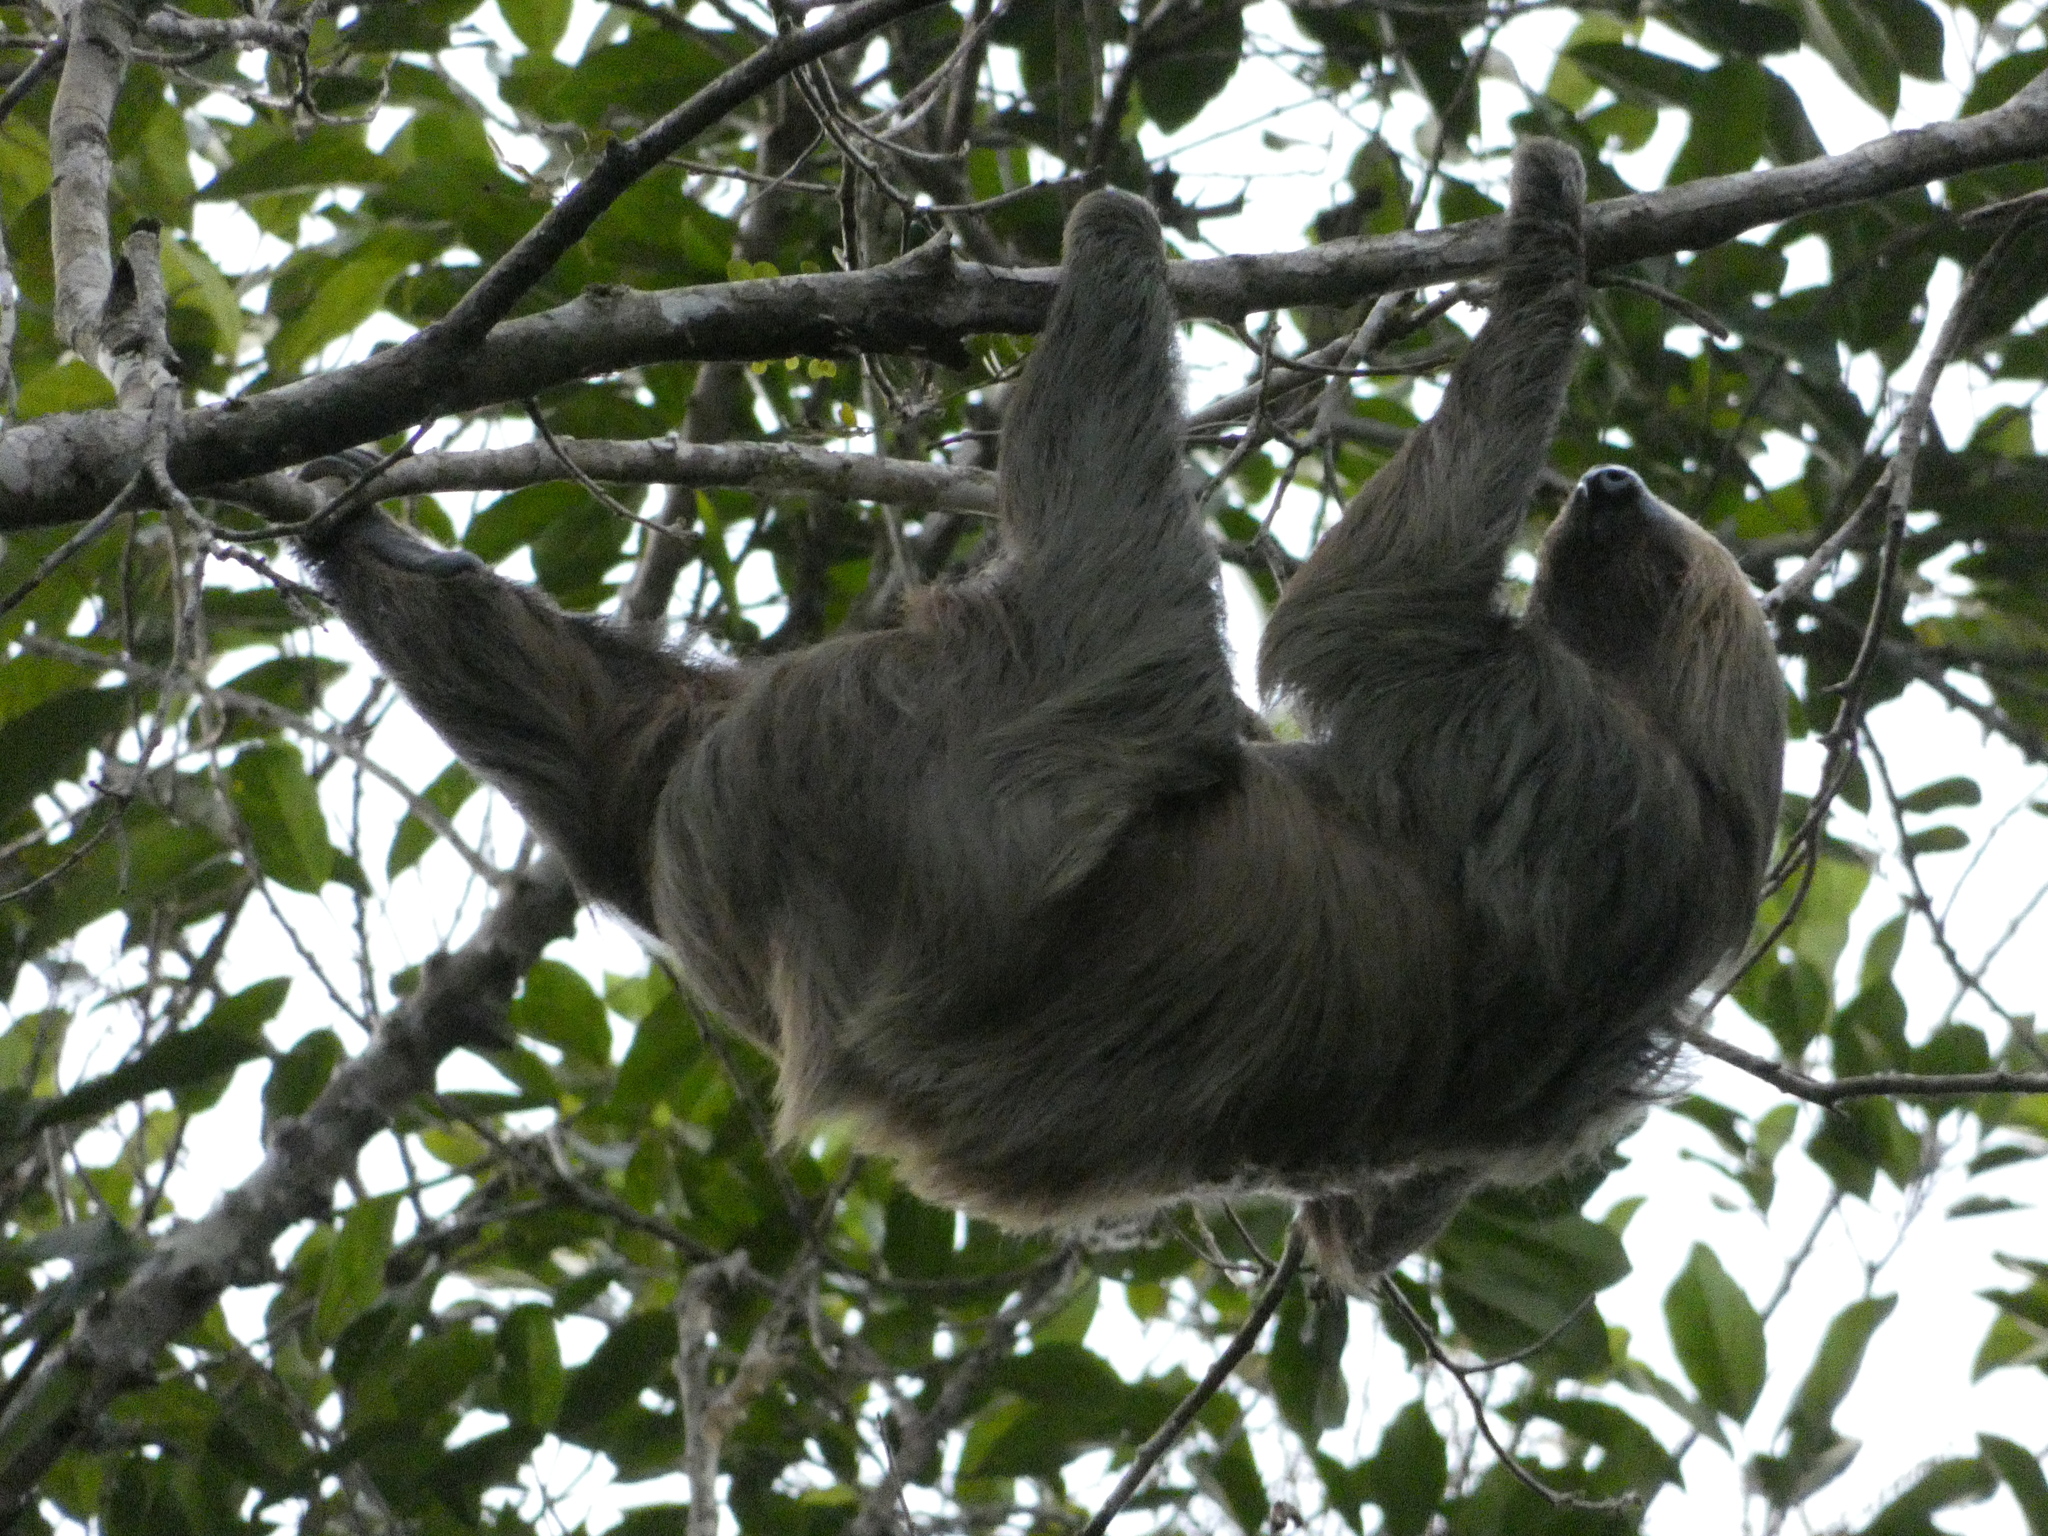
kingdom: Animalia
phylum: Chordata
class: Mammalia
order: Pilosa
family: Megalonychidae
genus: Choloepus
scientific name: Choloepus didactylus
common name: Southern two-toed sloth
